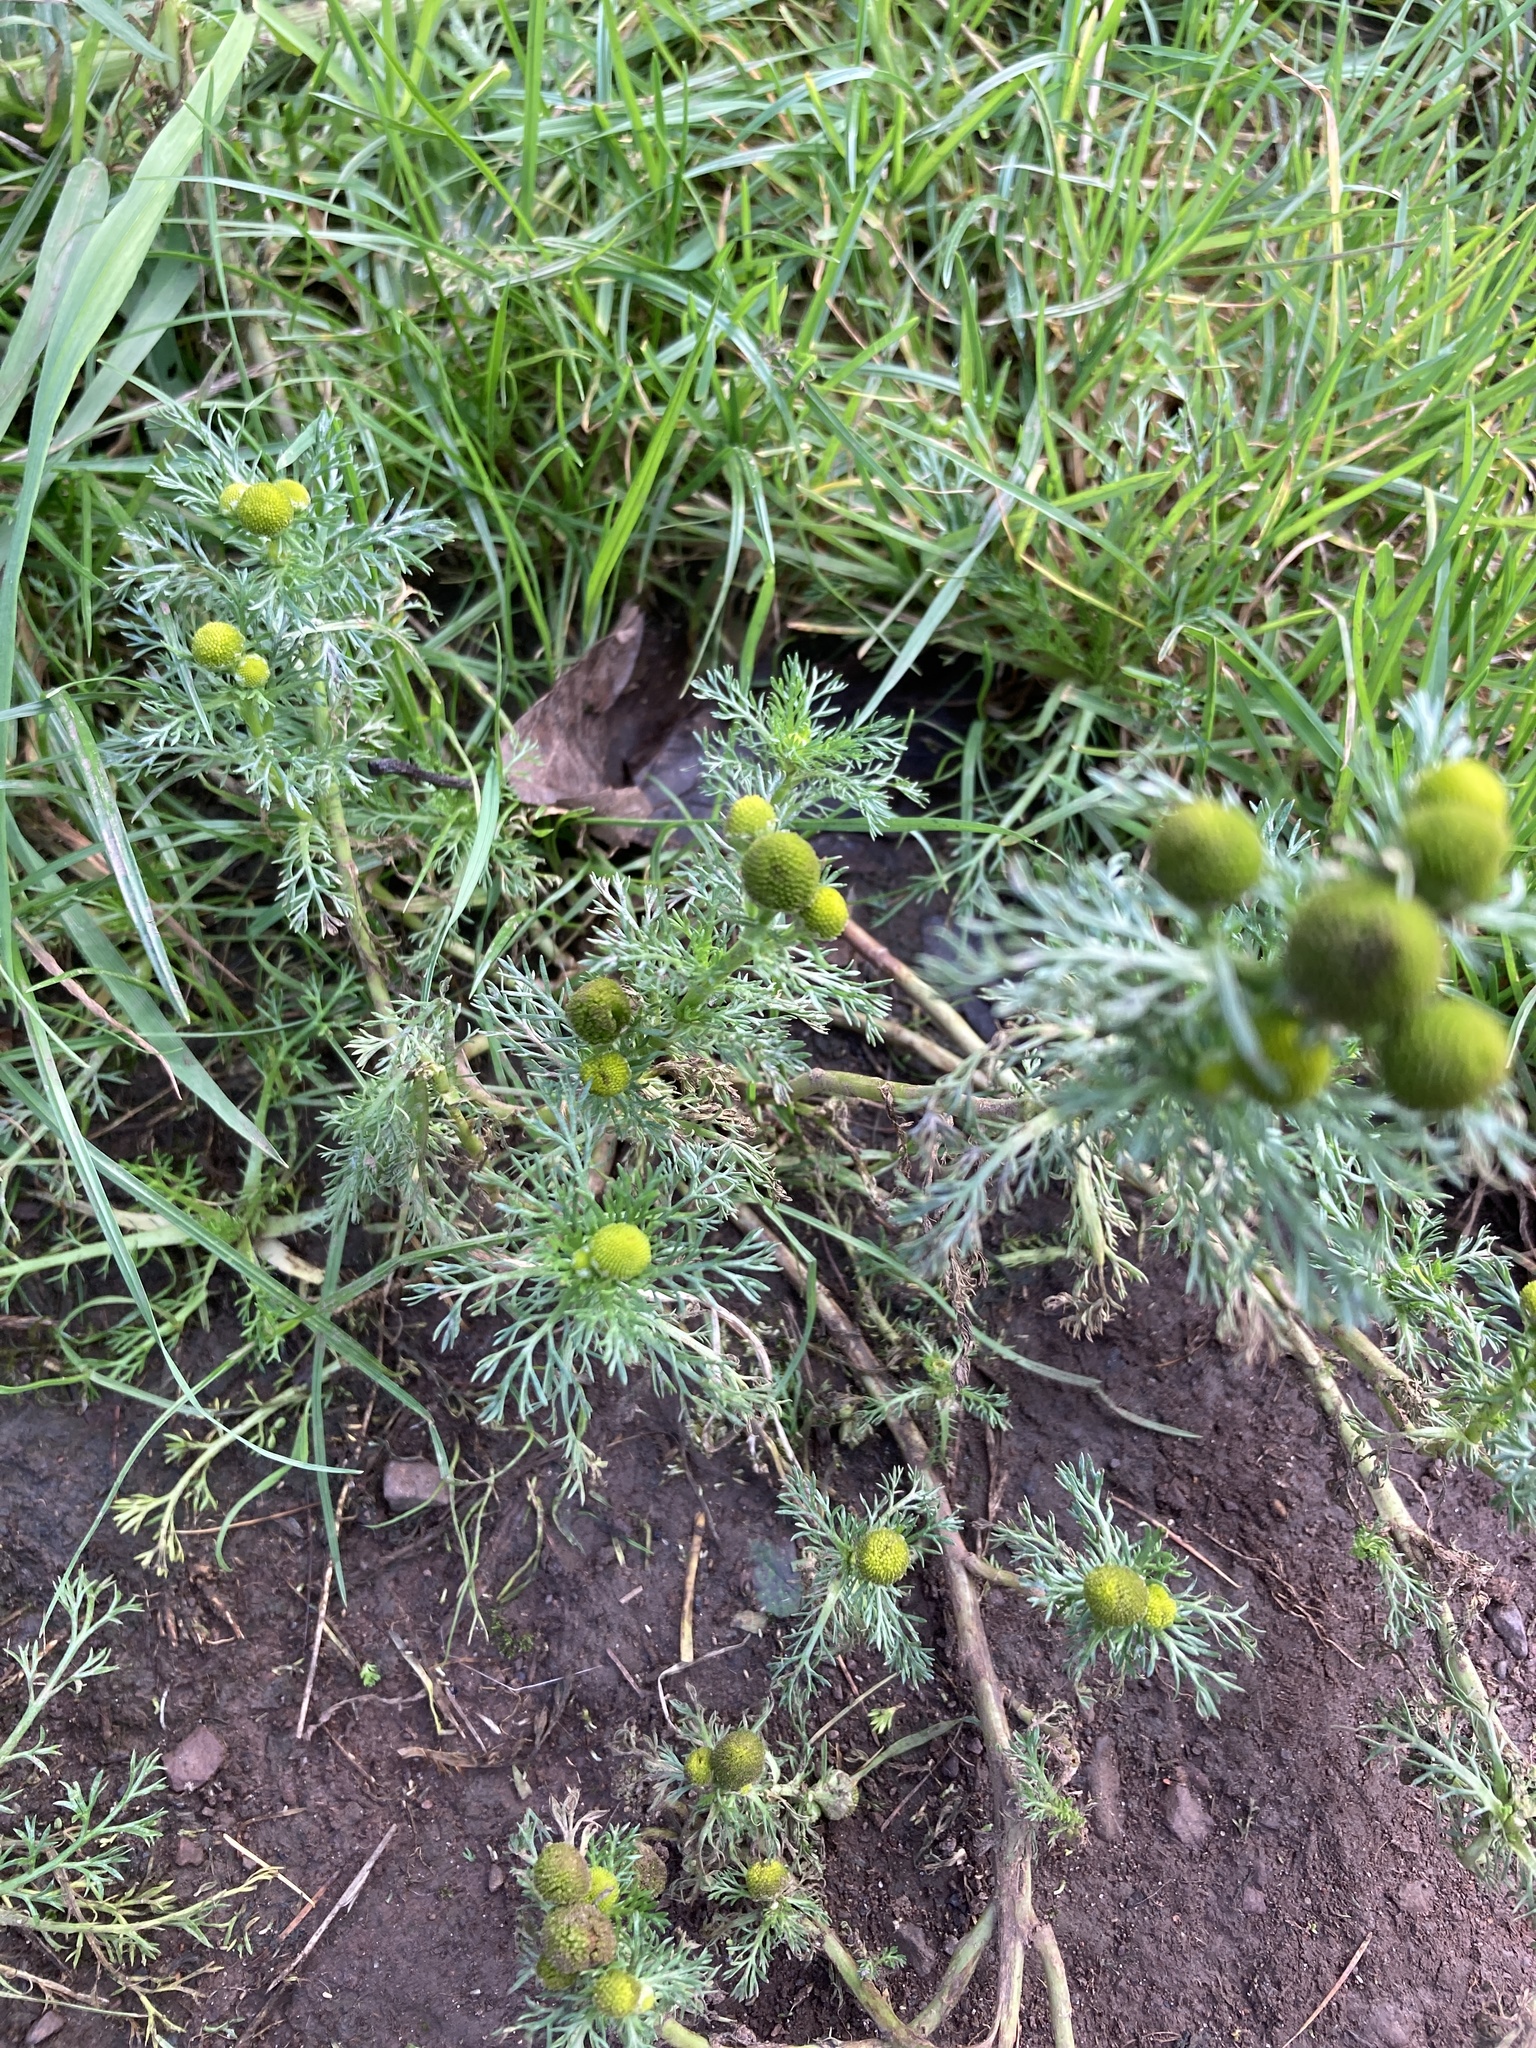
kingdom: Plantae
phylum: Tracheophyta
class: Magnoliopsida
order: Asterales
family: Asteraceae
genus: Matricaria
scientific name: Matricaria discoidea
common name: Disc mayweed
